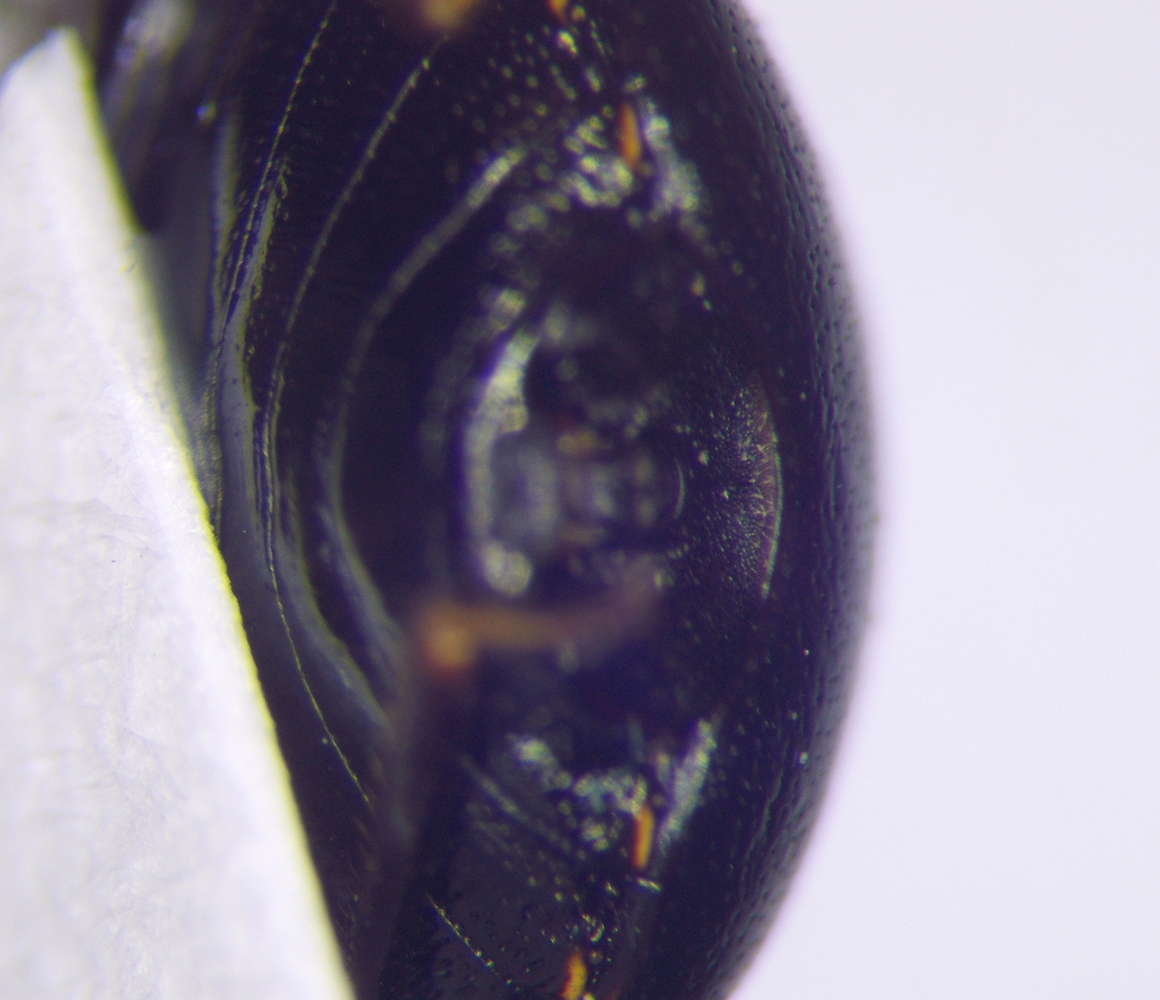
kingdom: Animalia
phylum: Arthropoda
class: Insecta
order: Hemiptera
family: Plataspidae
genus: Coptosoma
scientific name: Coptosoma scutellatum
